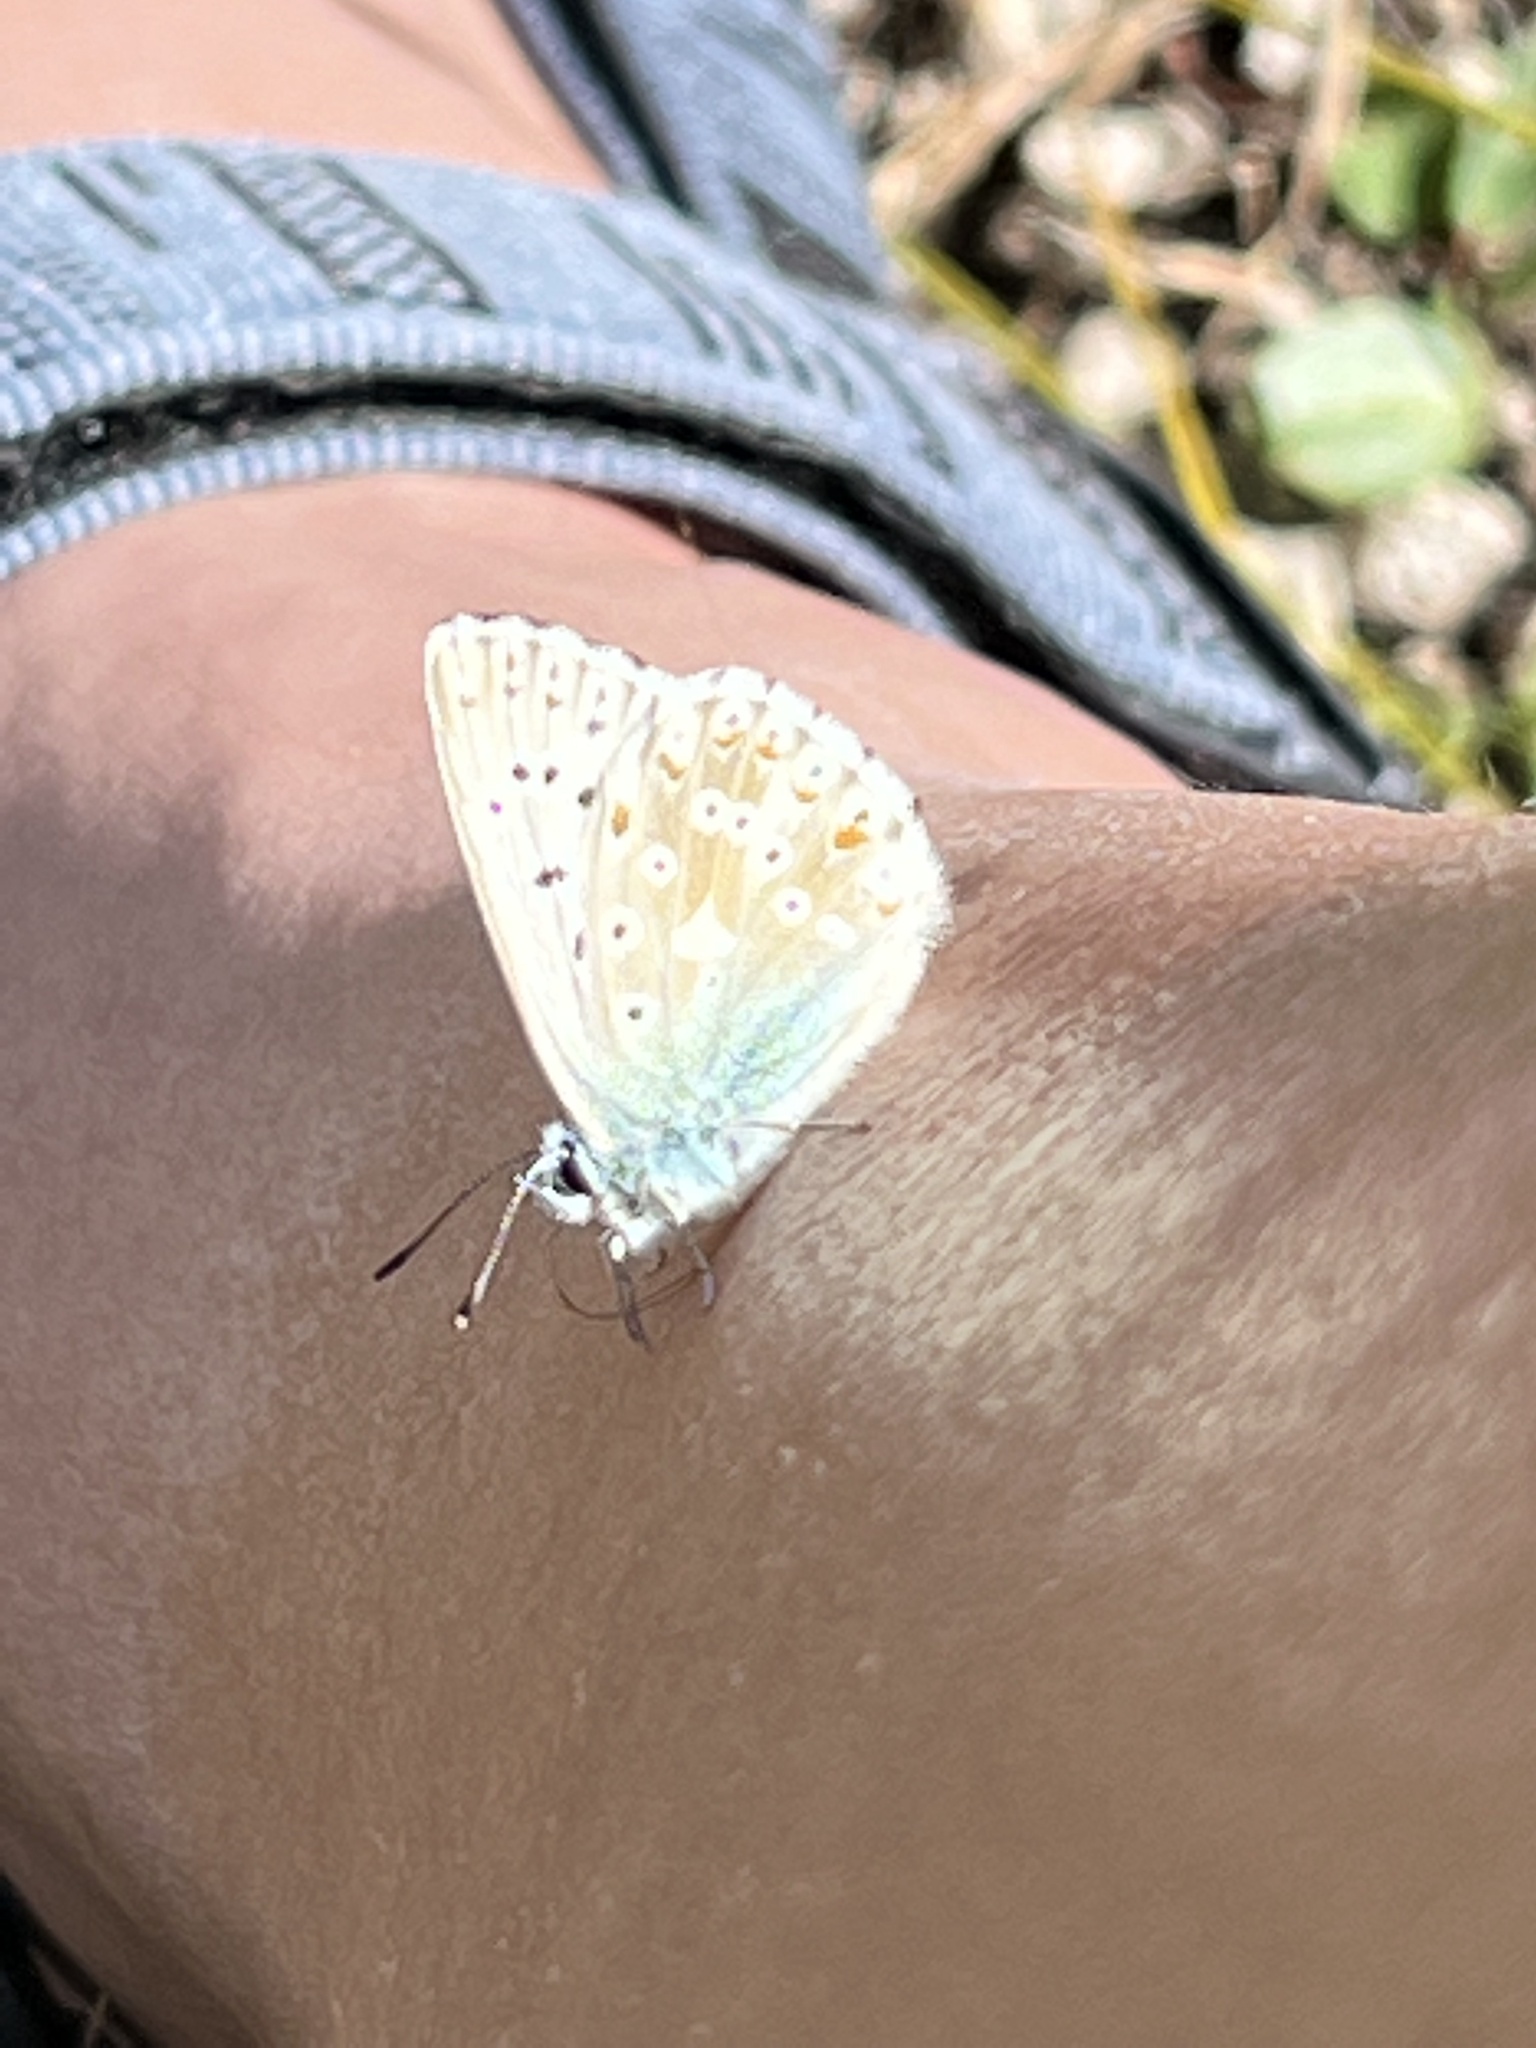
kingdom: Animalia
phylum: Arthropoda
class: Insecta
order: Lepidoptera
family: Lycaenidae
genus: Lysandra
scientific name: Lysandra coridon
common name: Chalkhill blue
